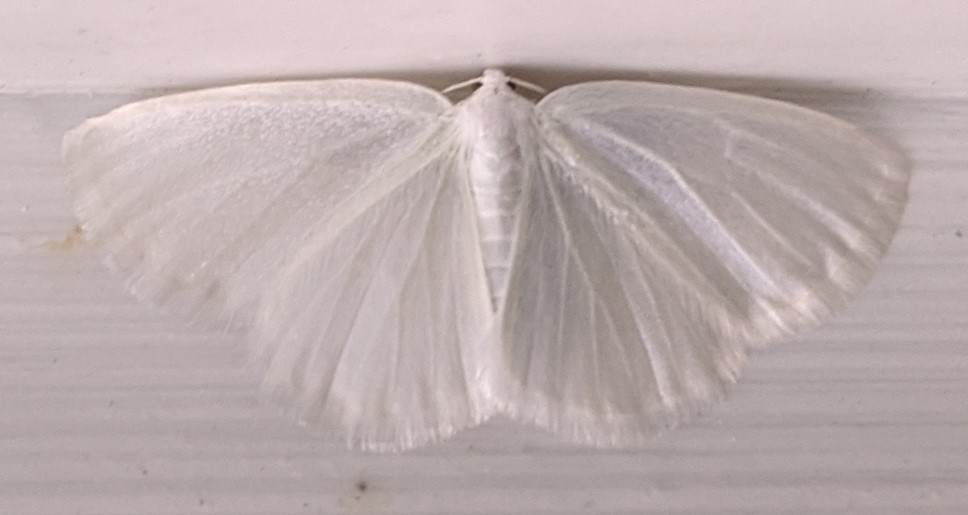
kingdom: Animalia
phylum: Arthropoda
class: Insecta
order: Lepidoptera
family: Geometridae
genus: Lomographa
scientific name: Lomographa vestaliata
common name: White spring moth
